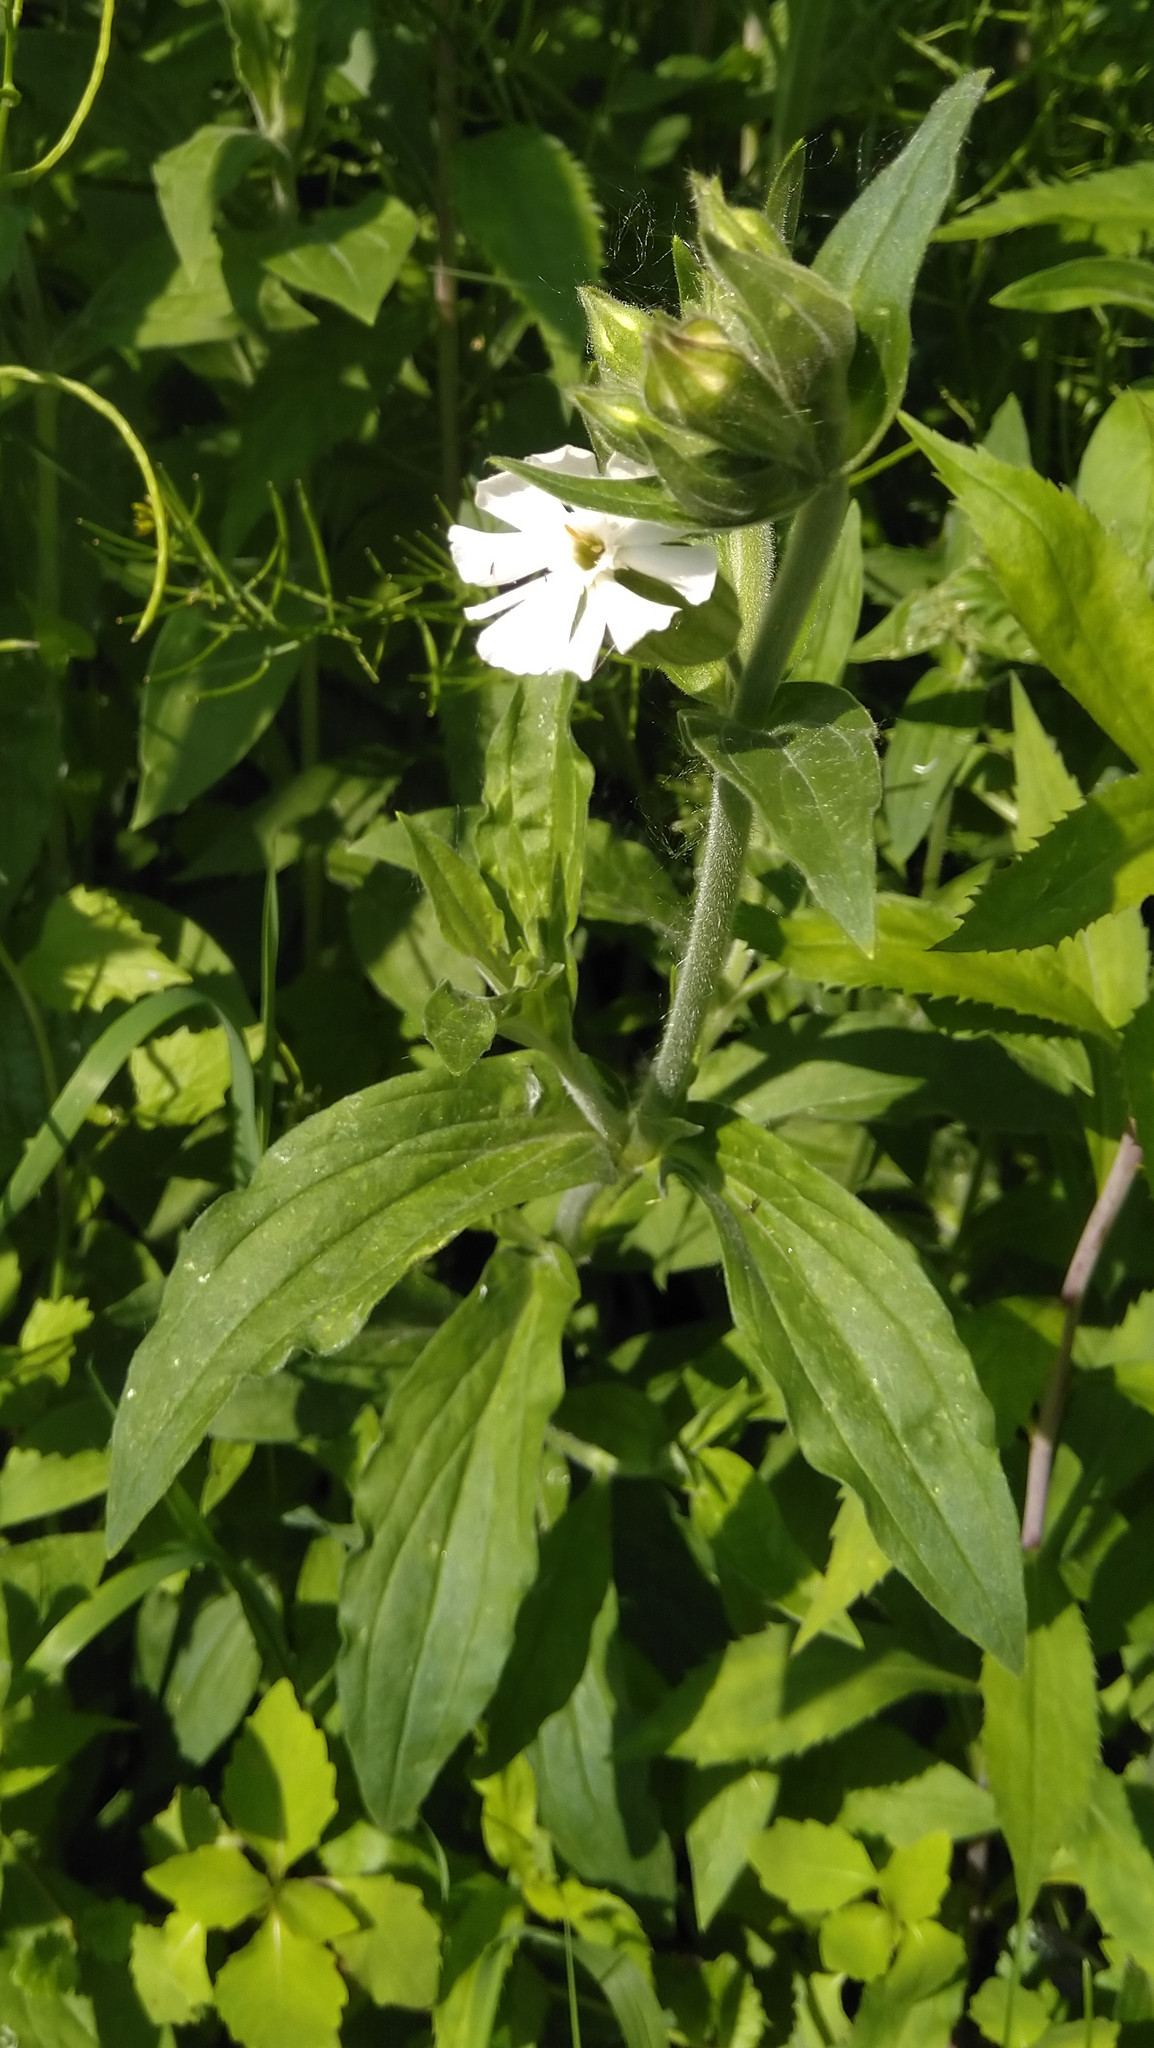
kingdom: Plantae
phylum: Tracheophyta
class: Magnoliopsida
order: Caryophyllales
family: Caryophyllaceae
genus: Silene
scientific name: Silene latifolia
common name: White campion
